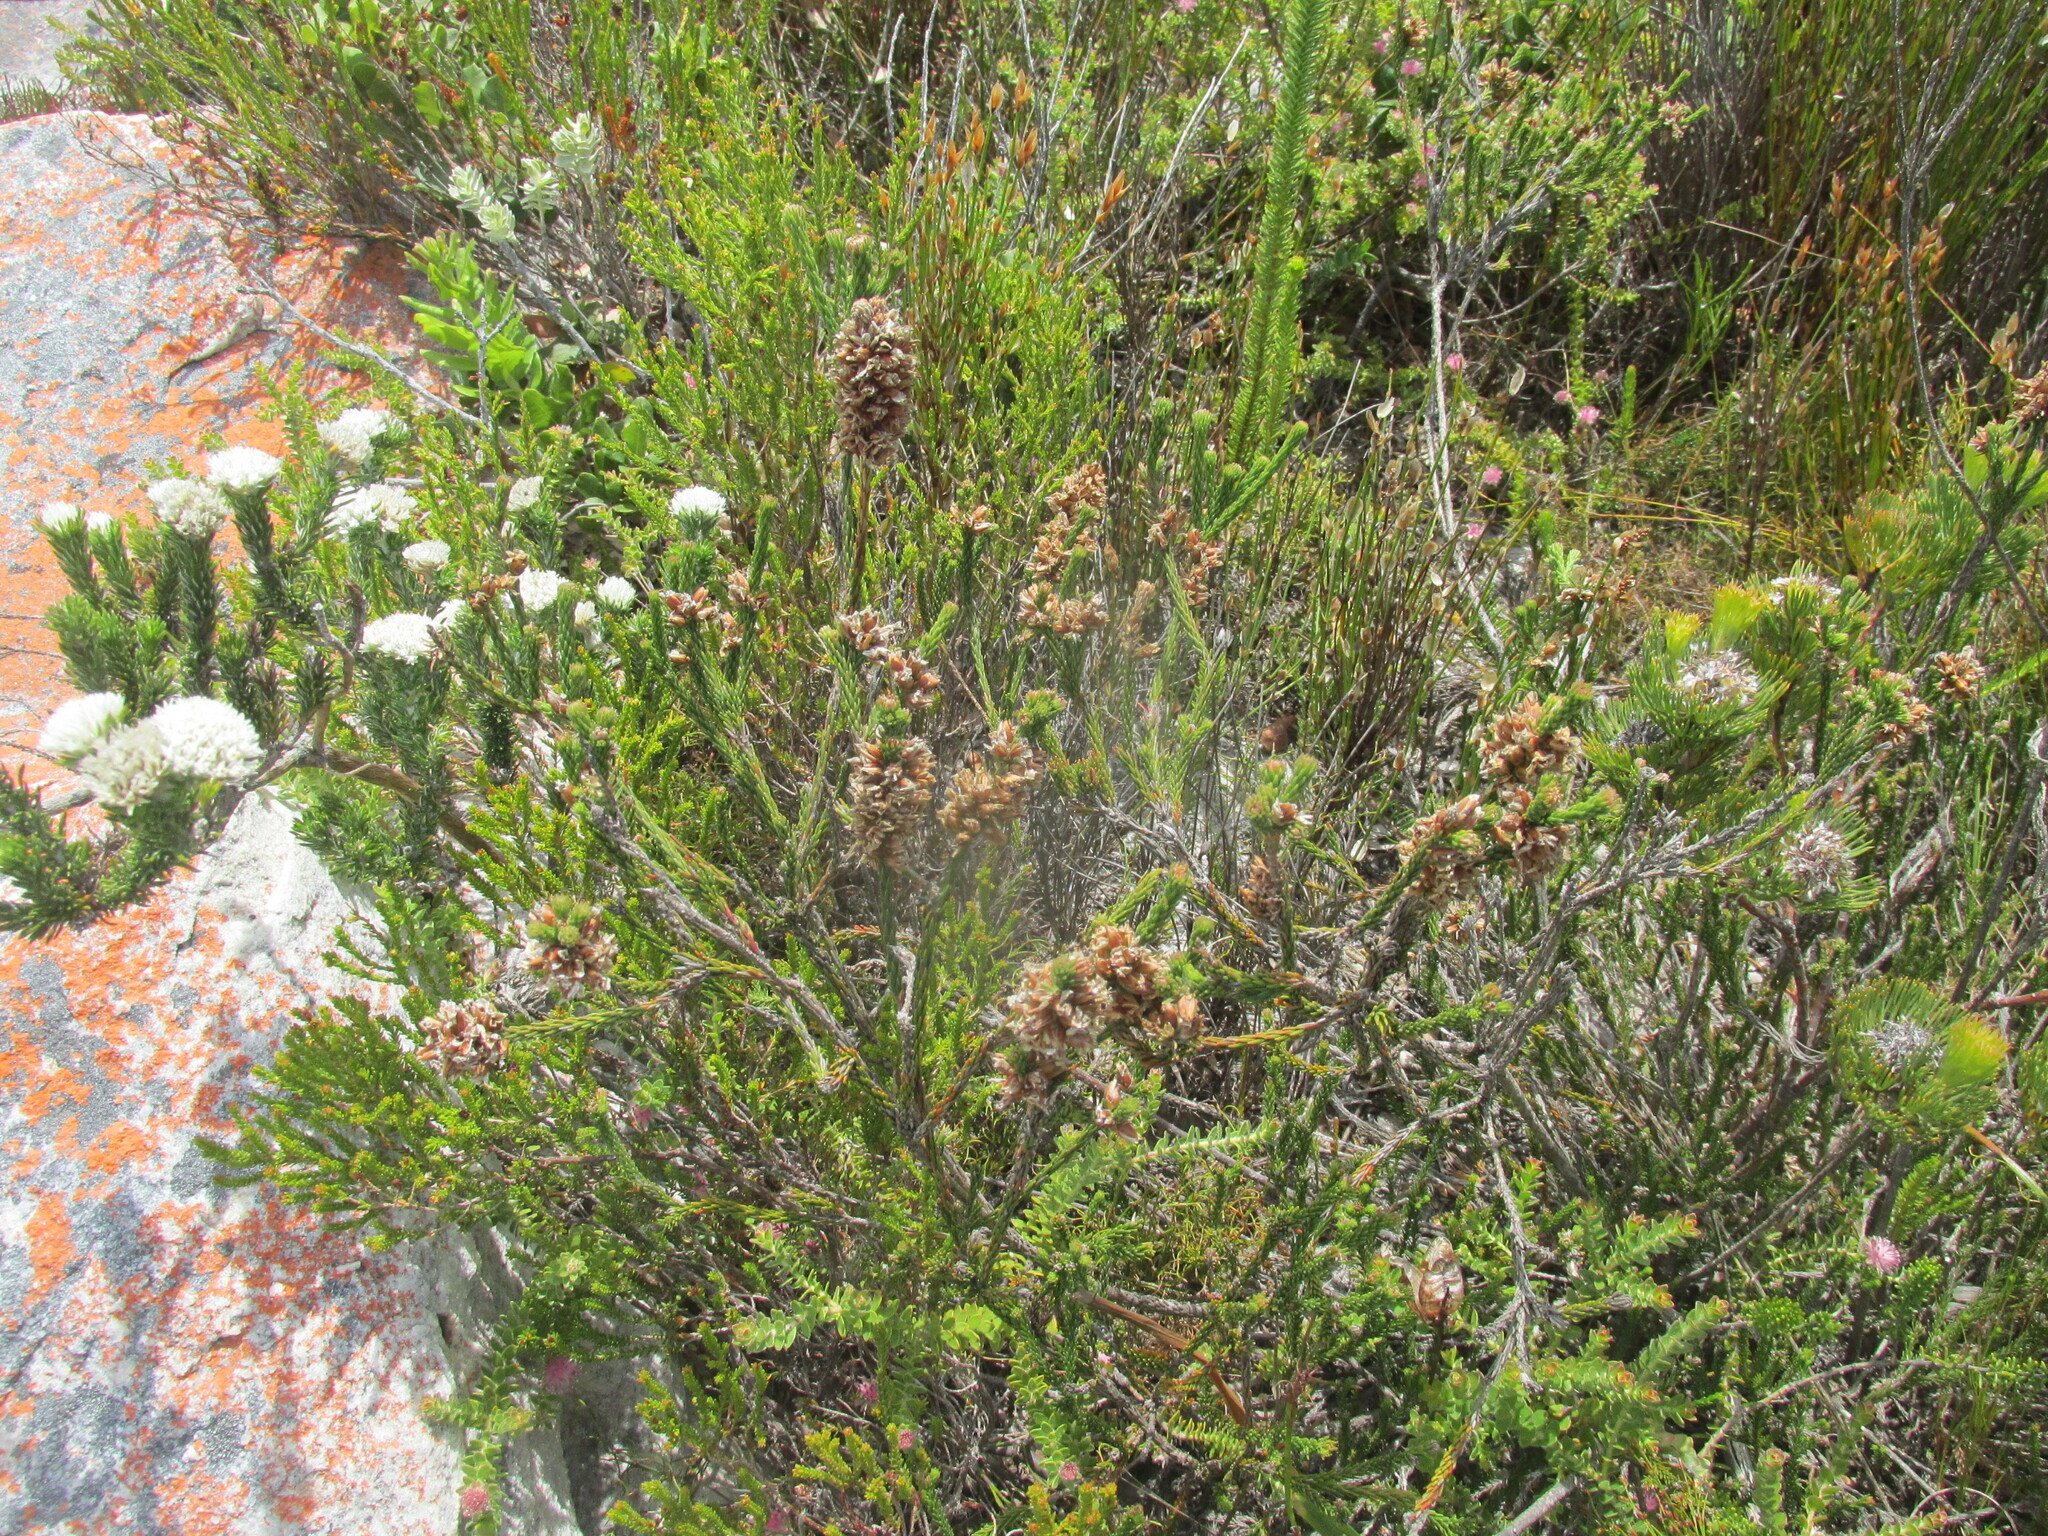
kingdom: Plantae
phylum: Tracheophyta
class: Magnoliopsida
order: Bruniales
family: Bruniaceae
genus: Audouinia
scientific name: Audouinia capitata
